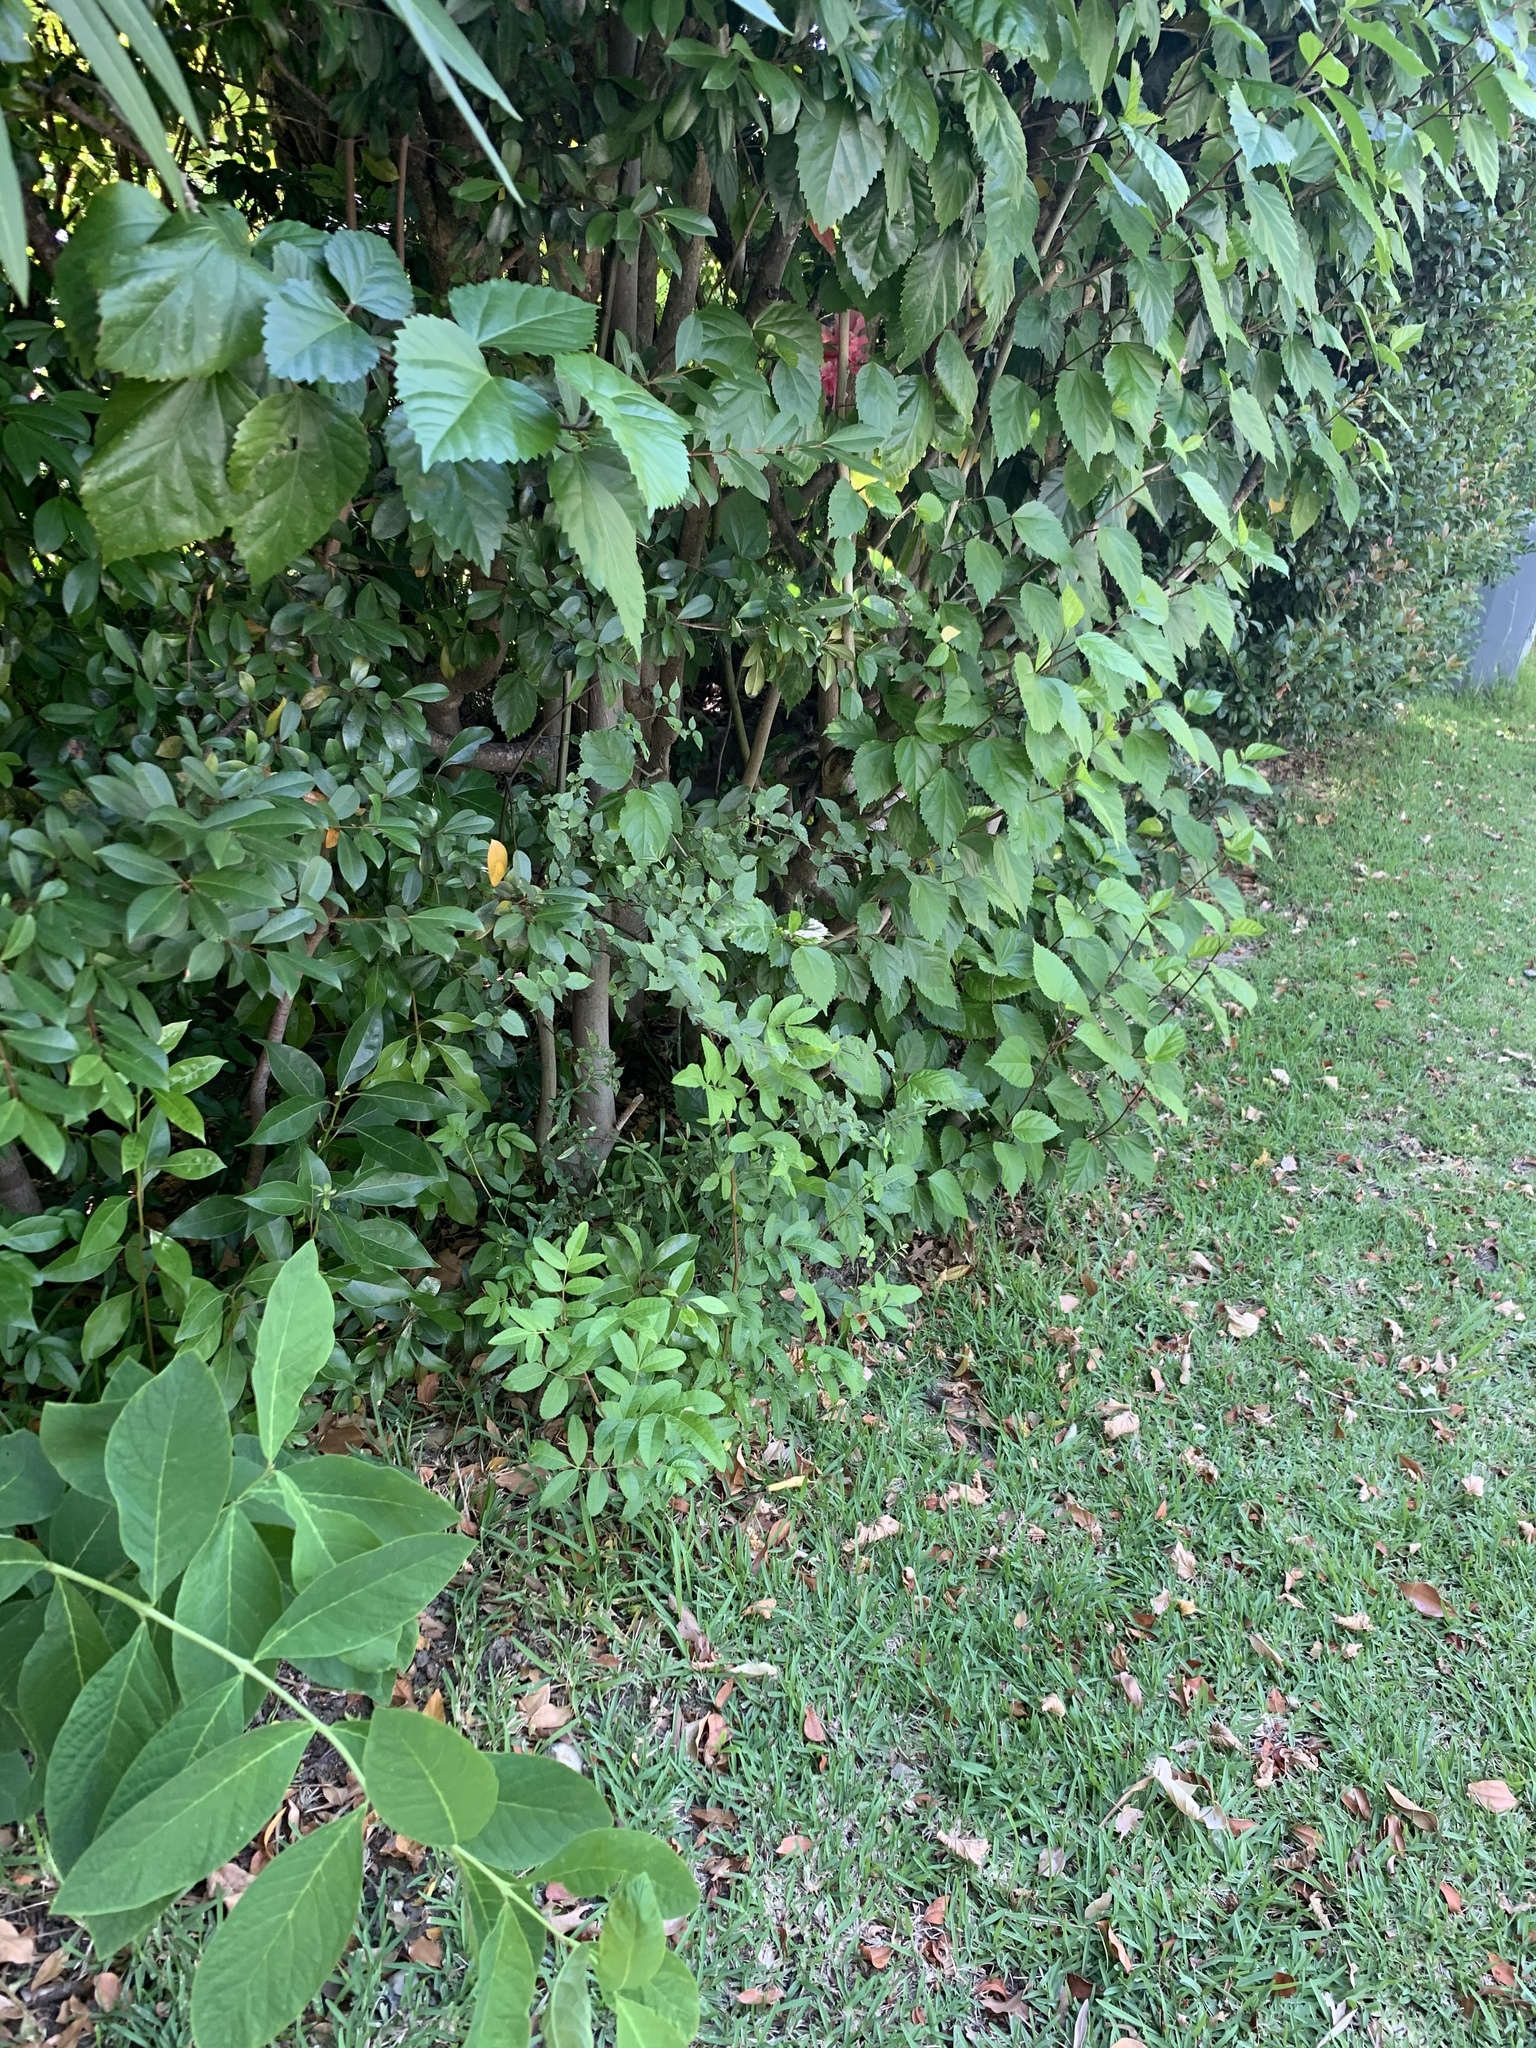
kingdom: Plantae
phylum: Tracheophyta
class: Magnoliopsida
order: Sapindales
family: Anacardiaceae
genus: Schinus
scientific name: Schinus terebinthifolia
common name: Brazilian peppertree
